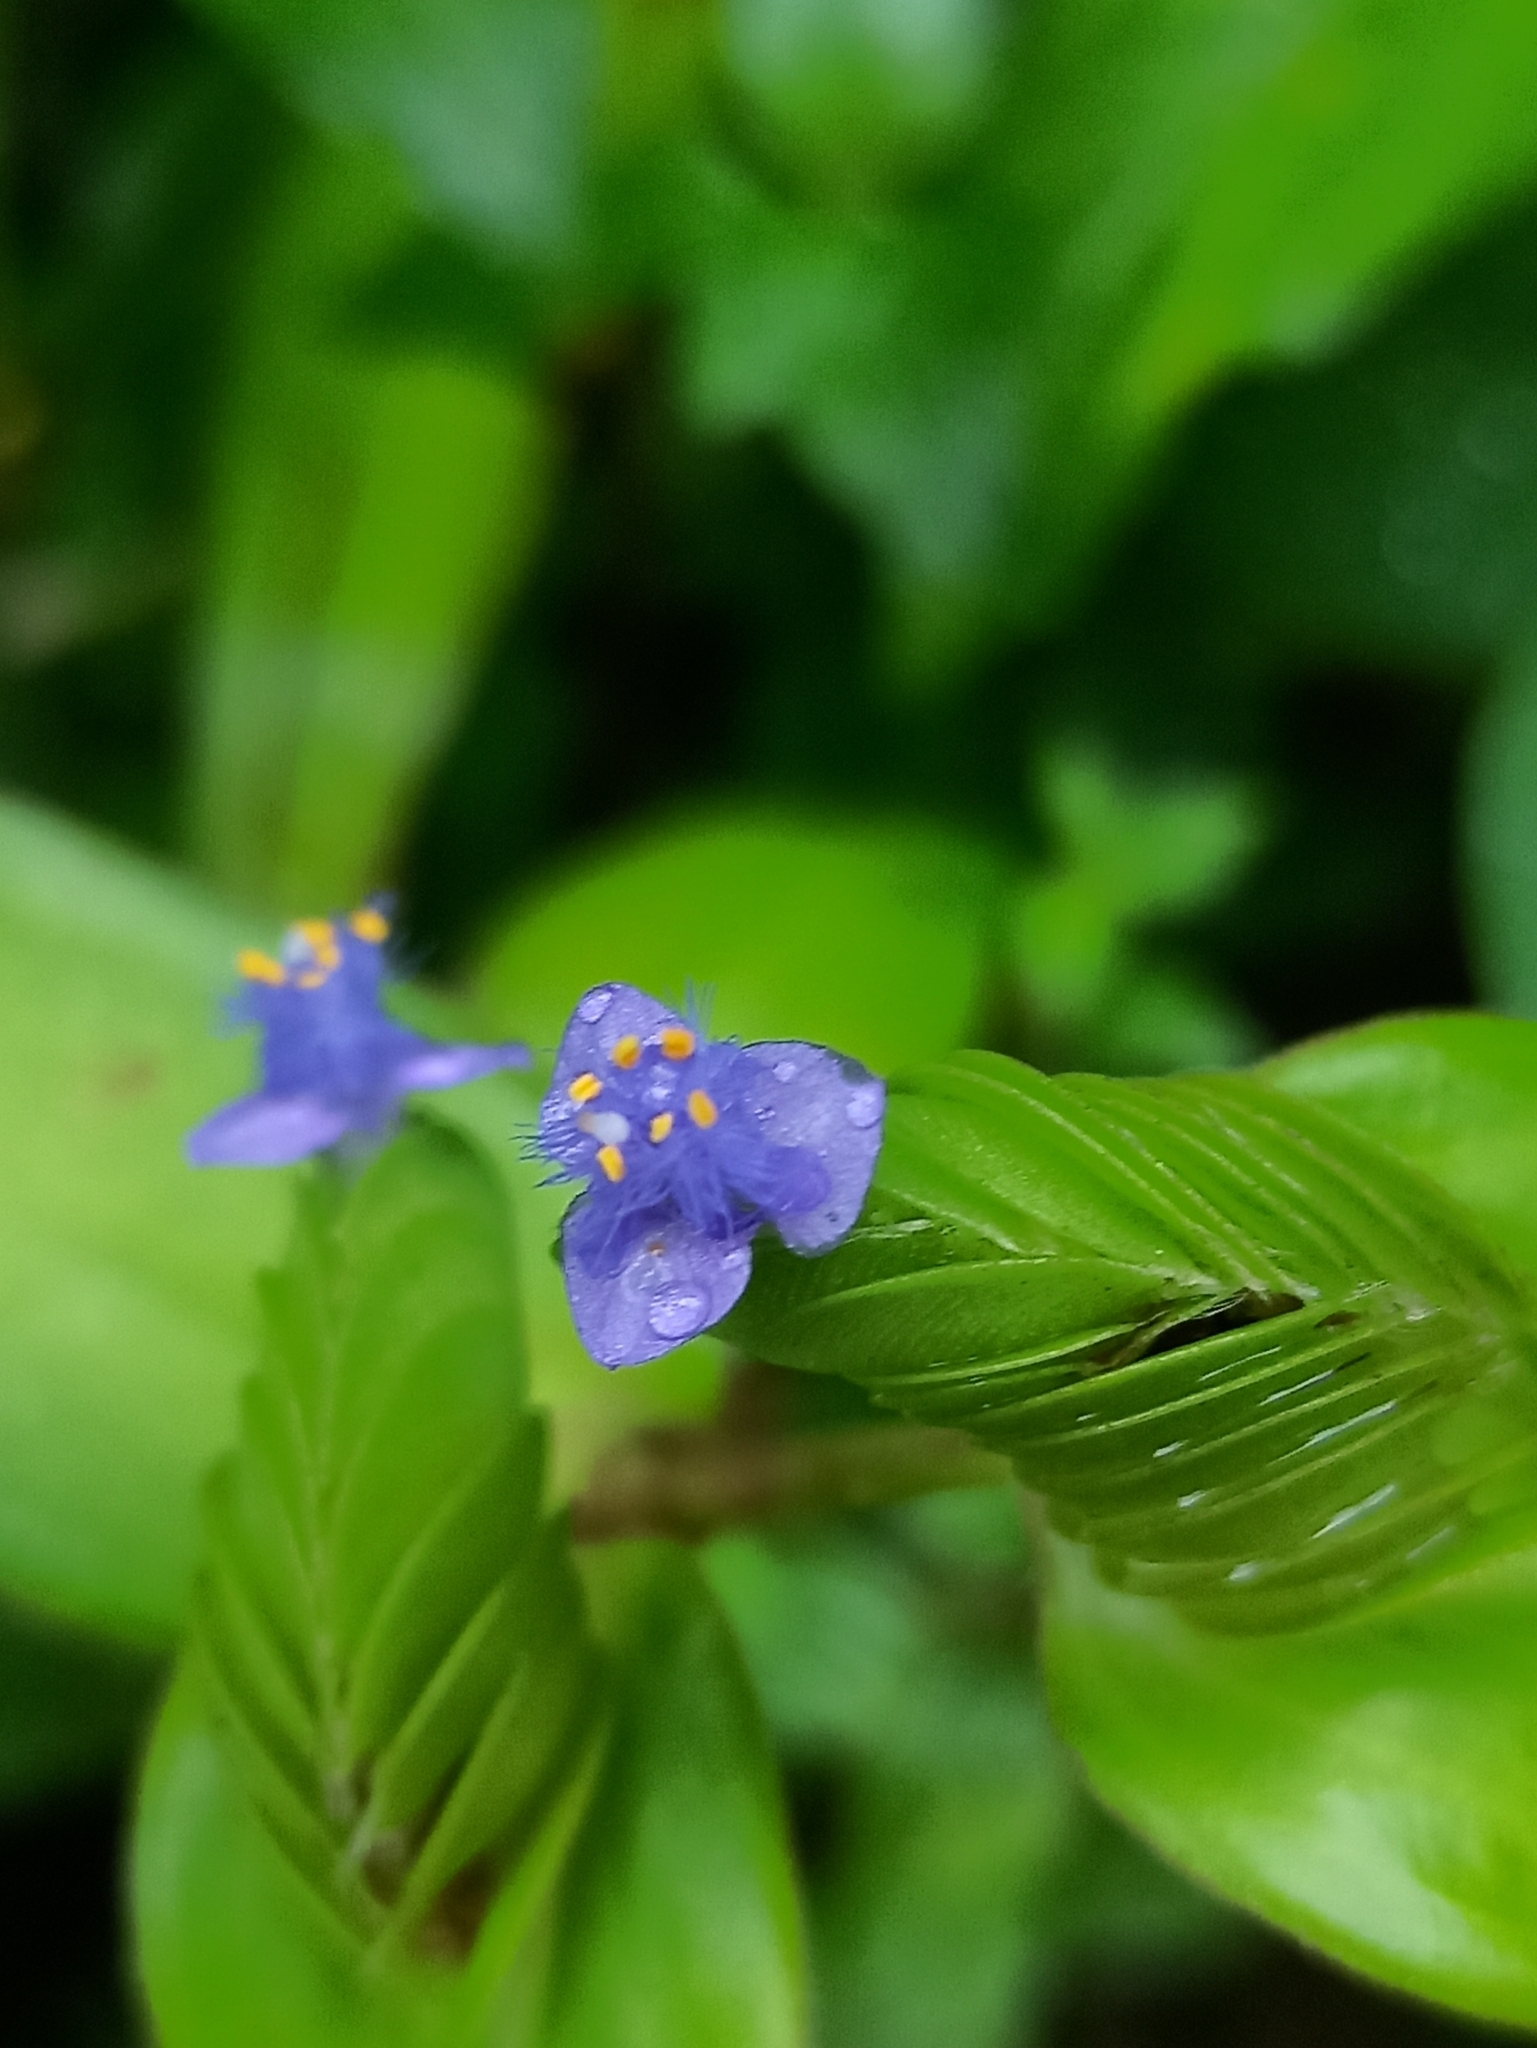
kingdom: Plantae
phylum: Tracheophyta
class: Liliopsida
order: Commelinales
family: Commelinaceae
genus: Cyanotis
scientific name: Cyanotis cristata
